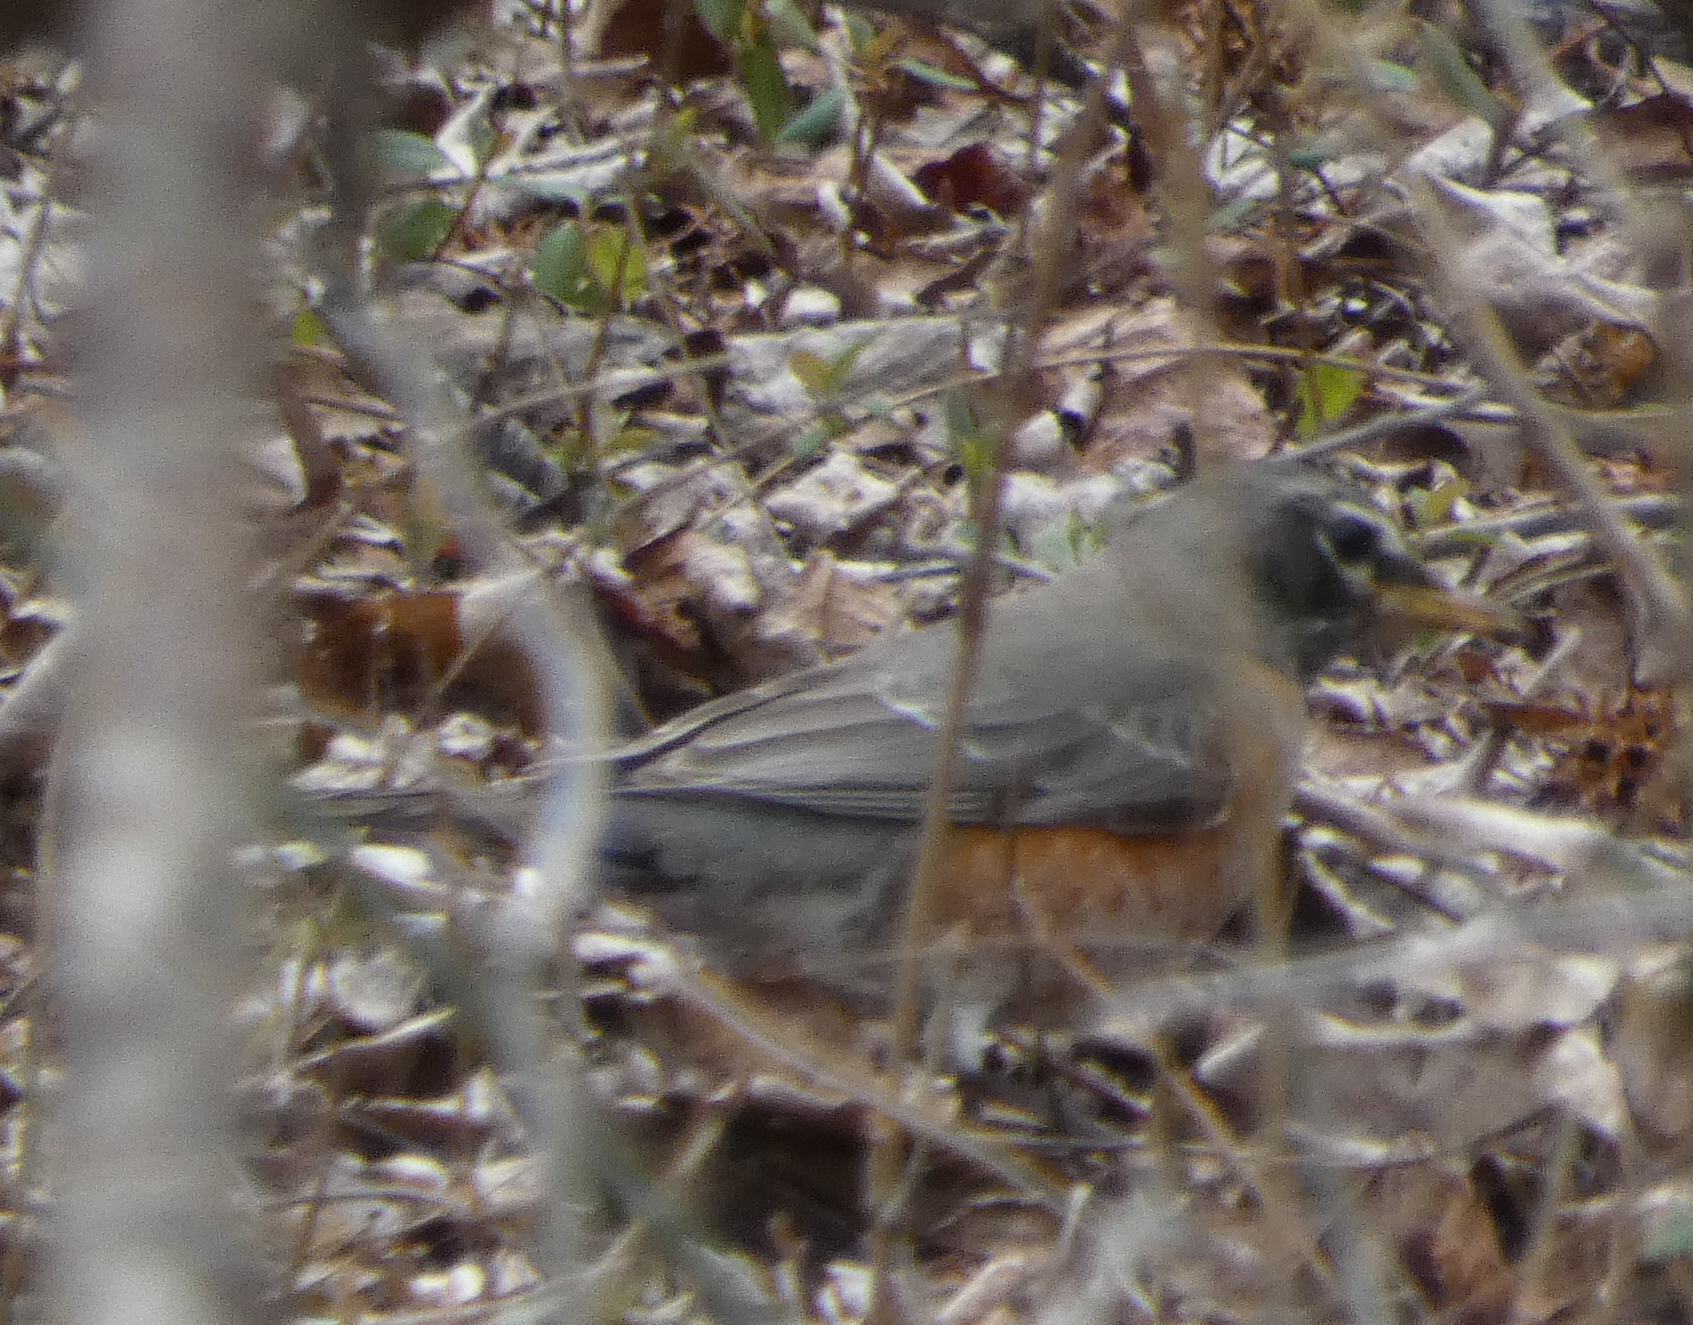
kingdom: Animalia
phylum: Chordata
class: Aves
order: Passeriformes
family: Turdidae
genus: Turdus
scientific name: Turdus migratorius
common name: American robin
